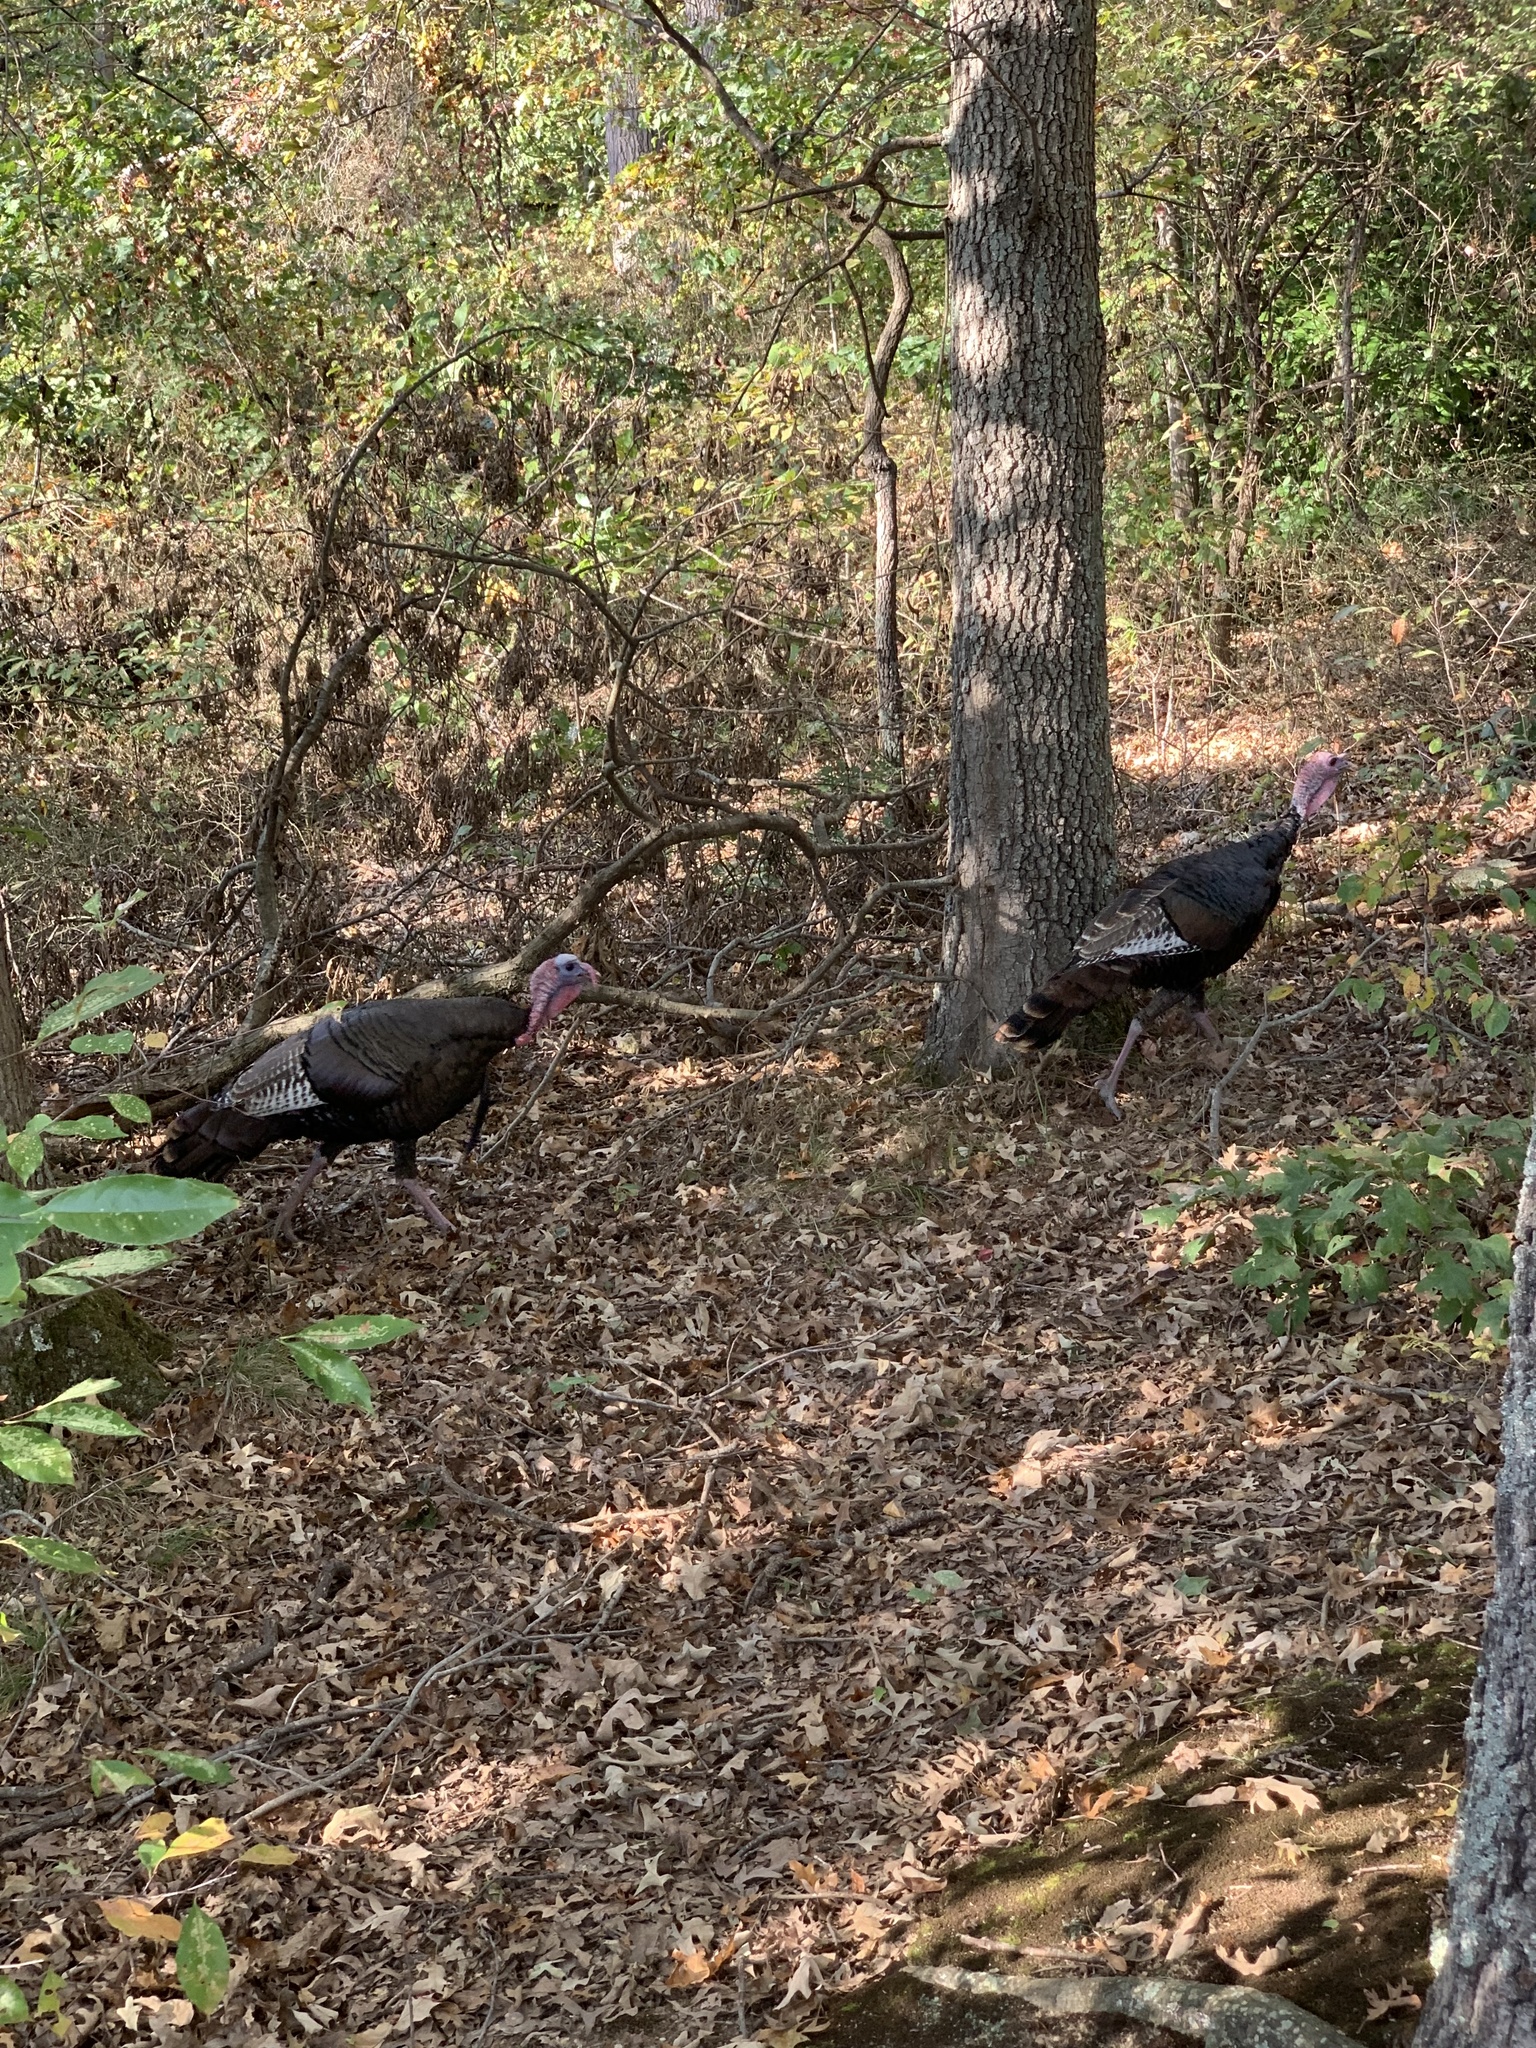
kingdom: Animalia
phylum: Chordata
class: Aves
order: Galliformes
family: Phasianidae
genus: Meleagris
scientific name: Meleagris gallopavo
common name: Wild turkey
